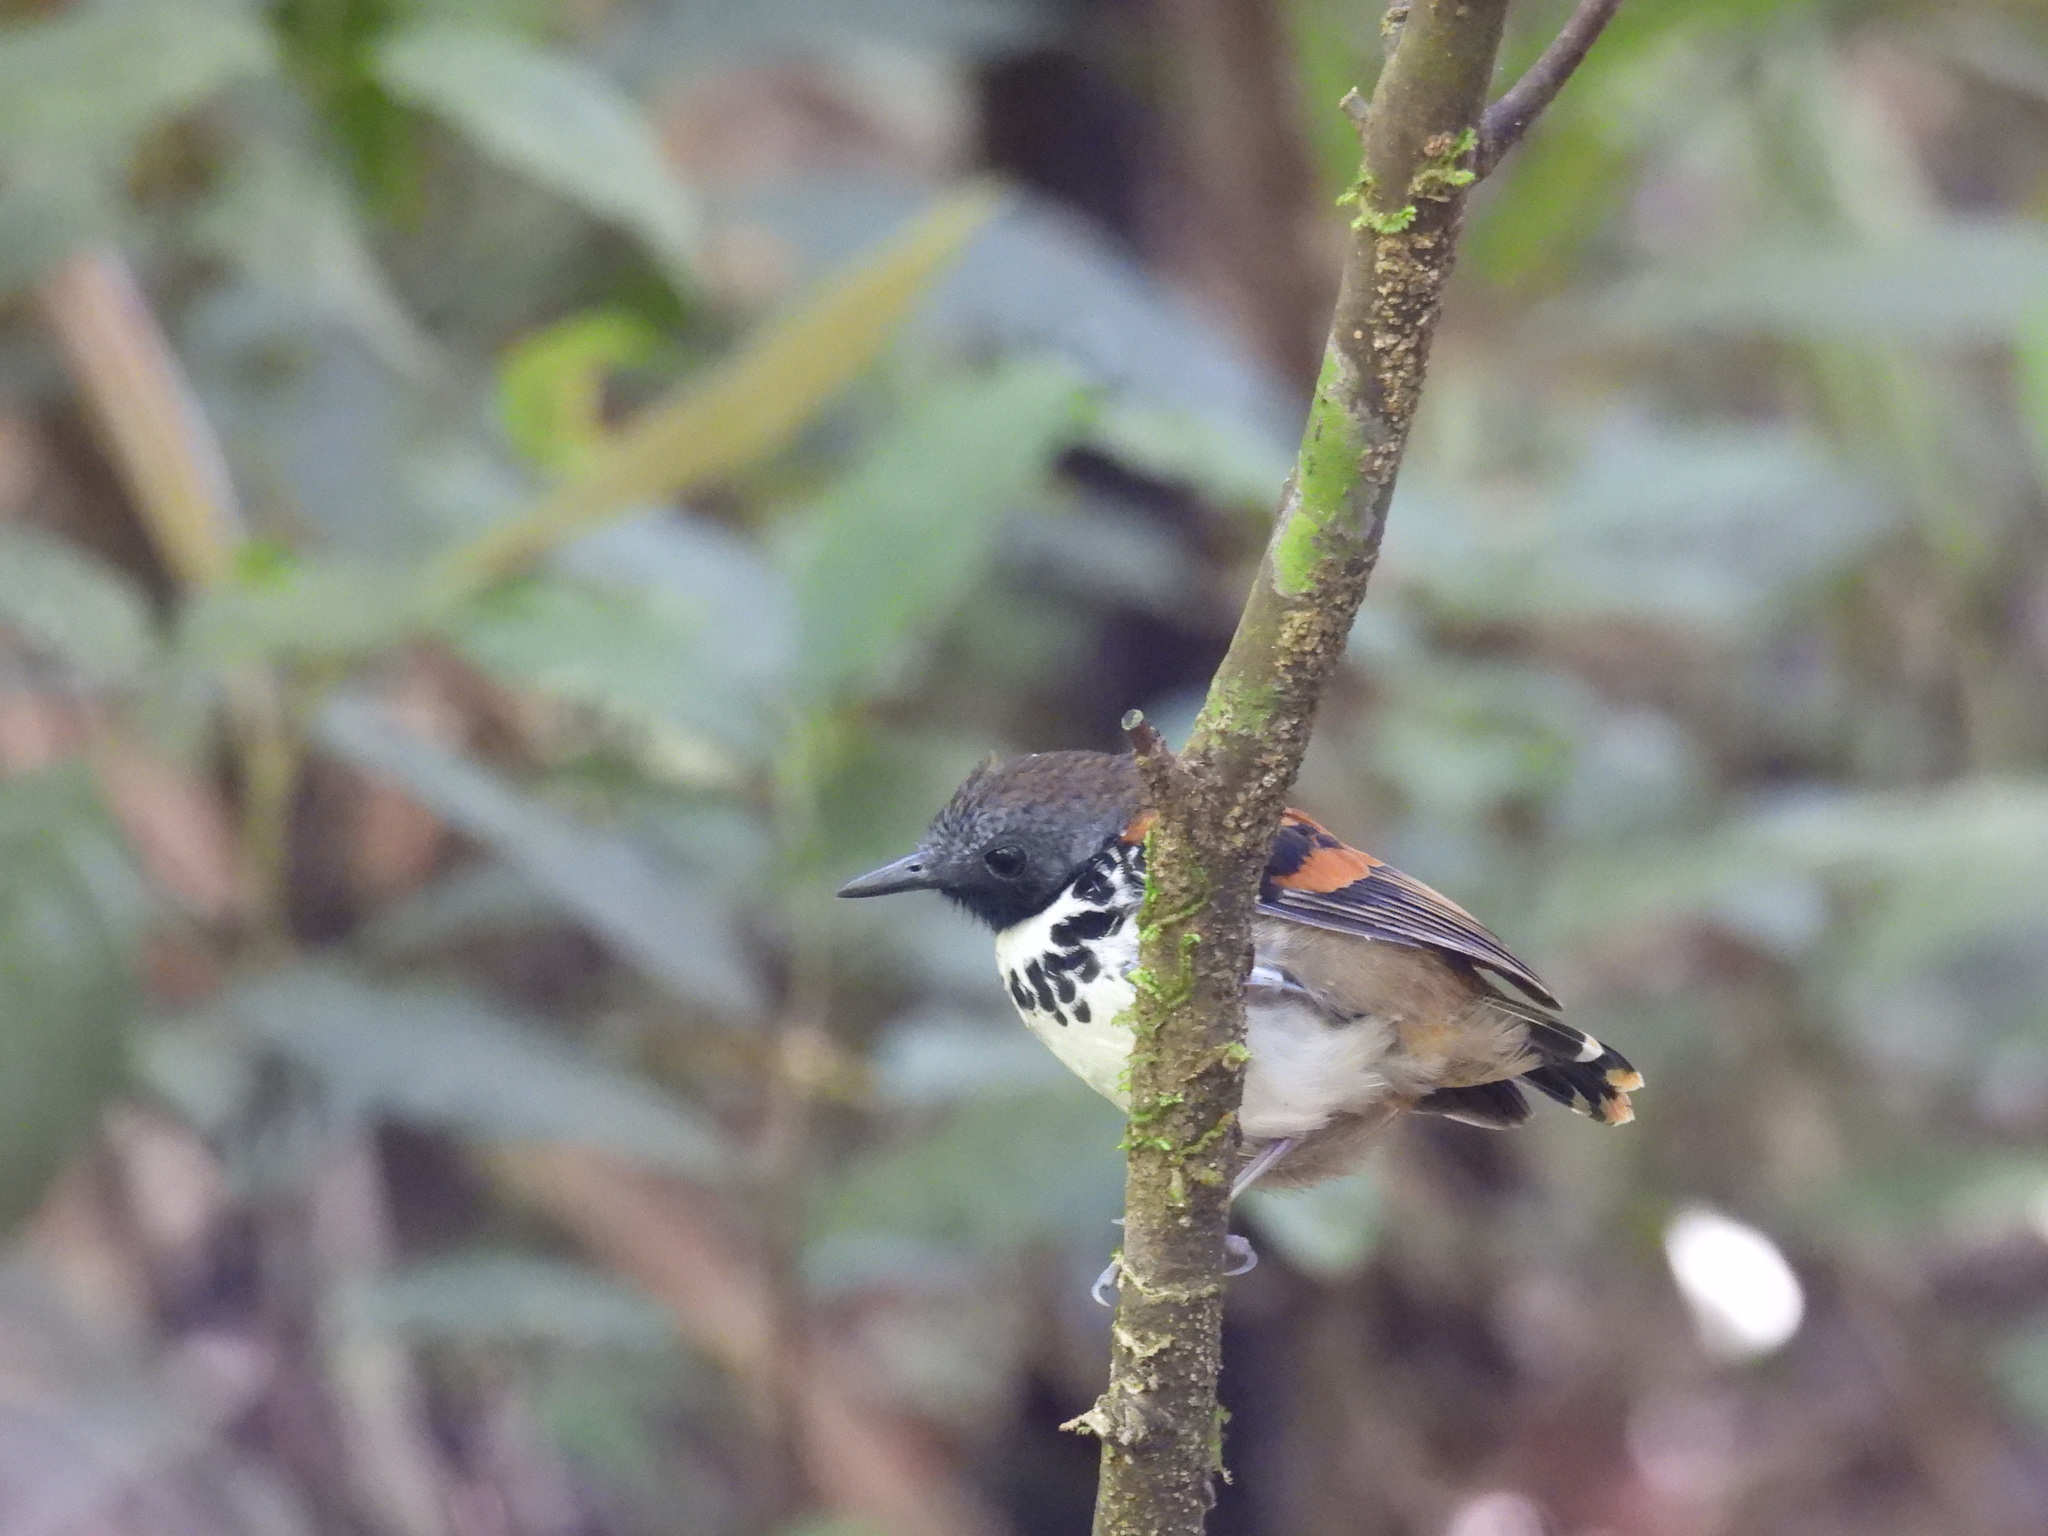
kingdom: Animalia
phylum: Chordata
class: Aves
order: Passeriformes
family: Thamnophilidae
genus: Hylophylax
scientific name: Hylophylax naevioides
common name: Spotted antbird
